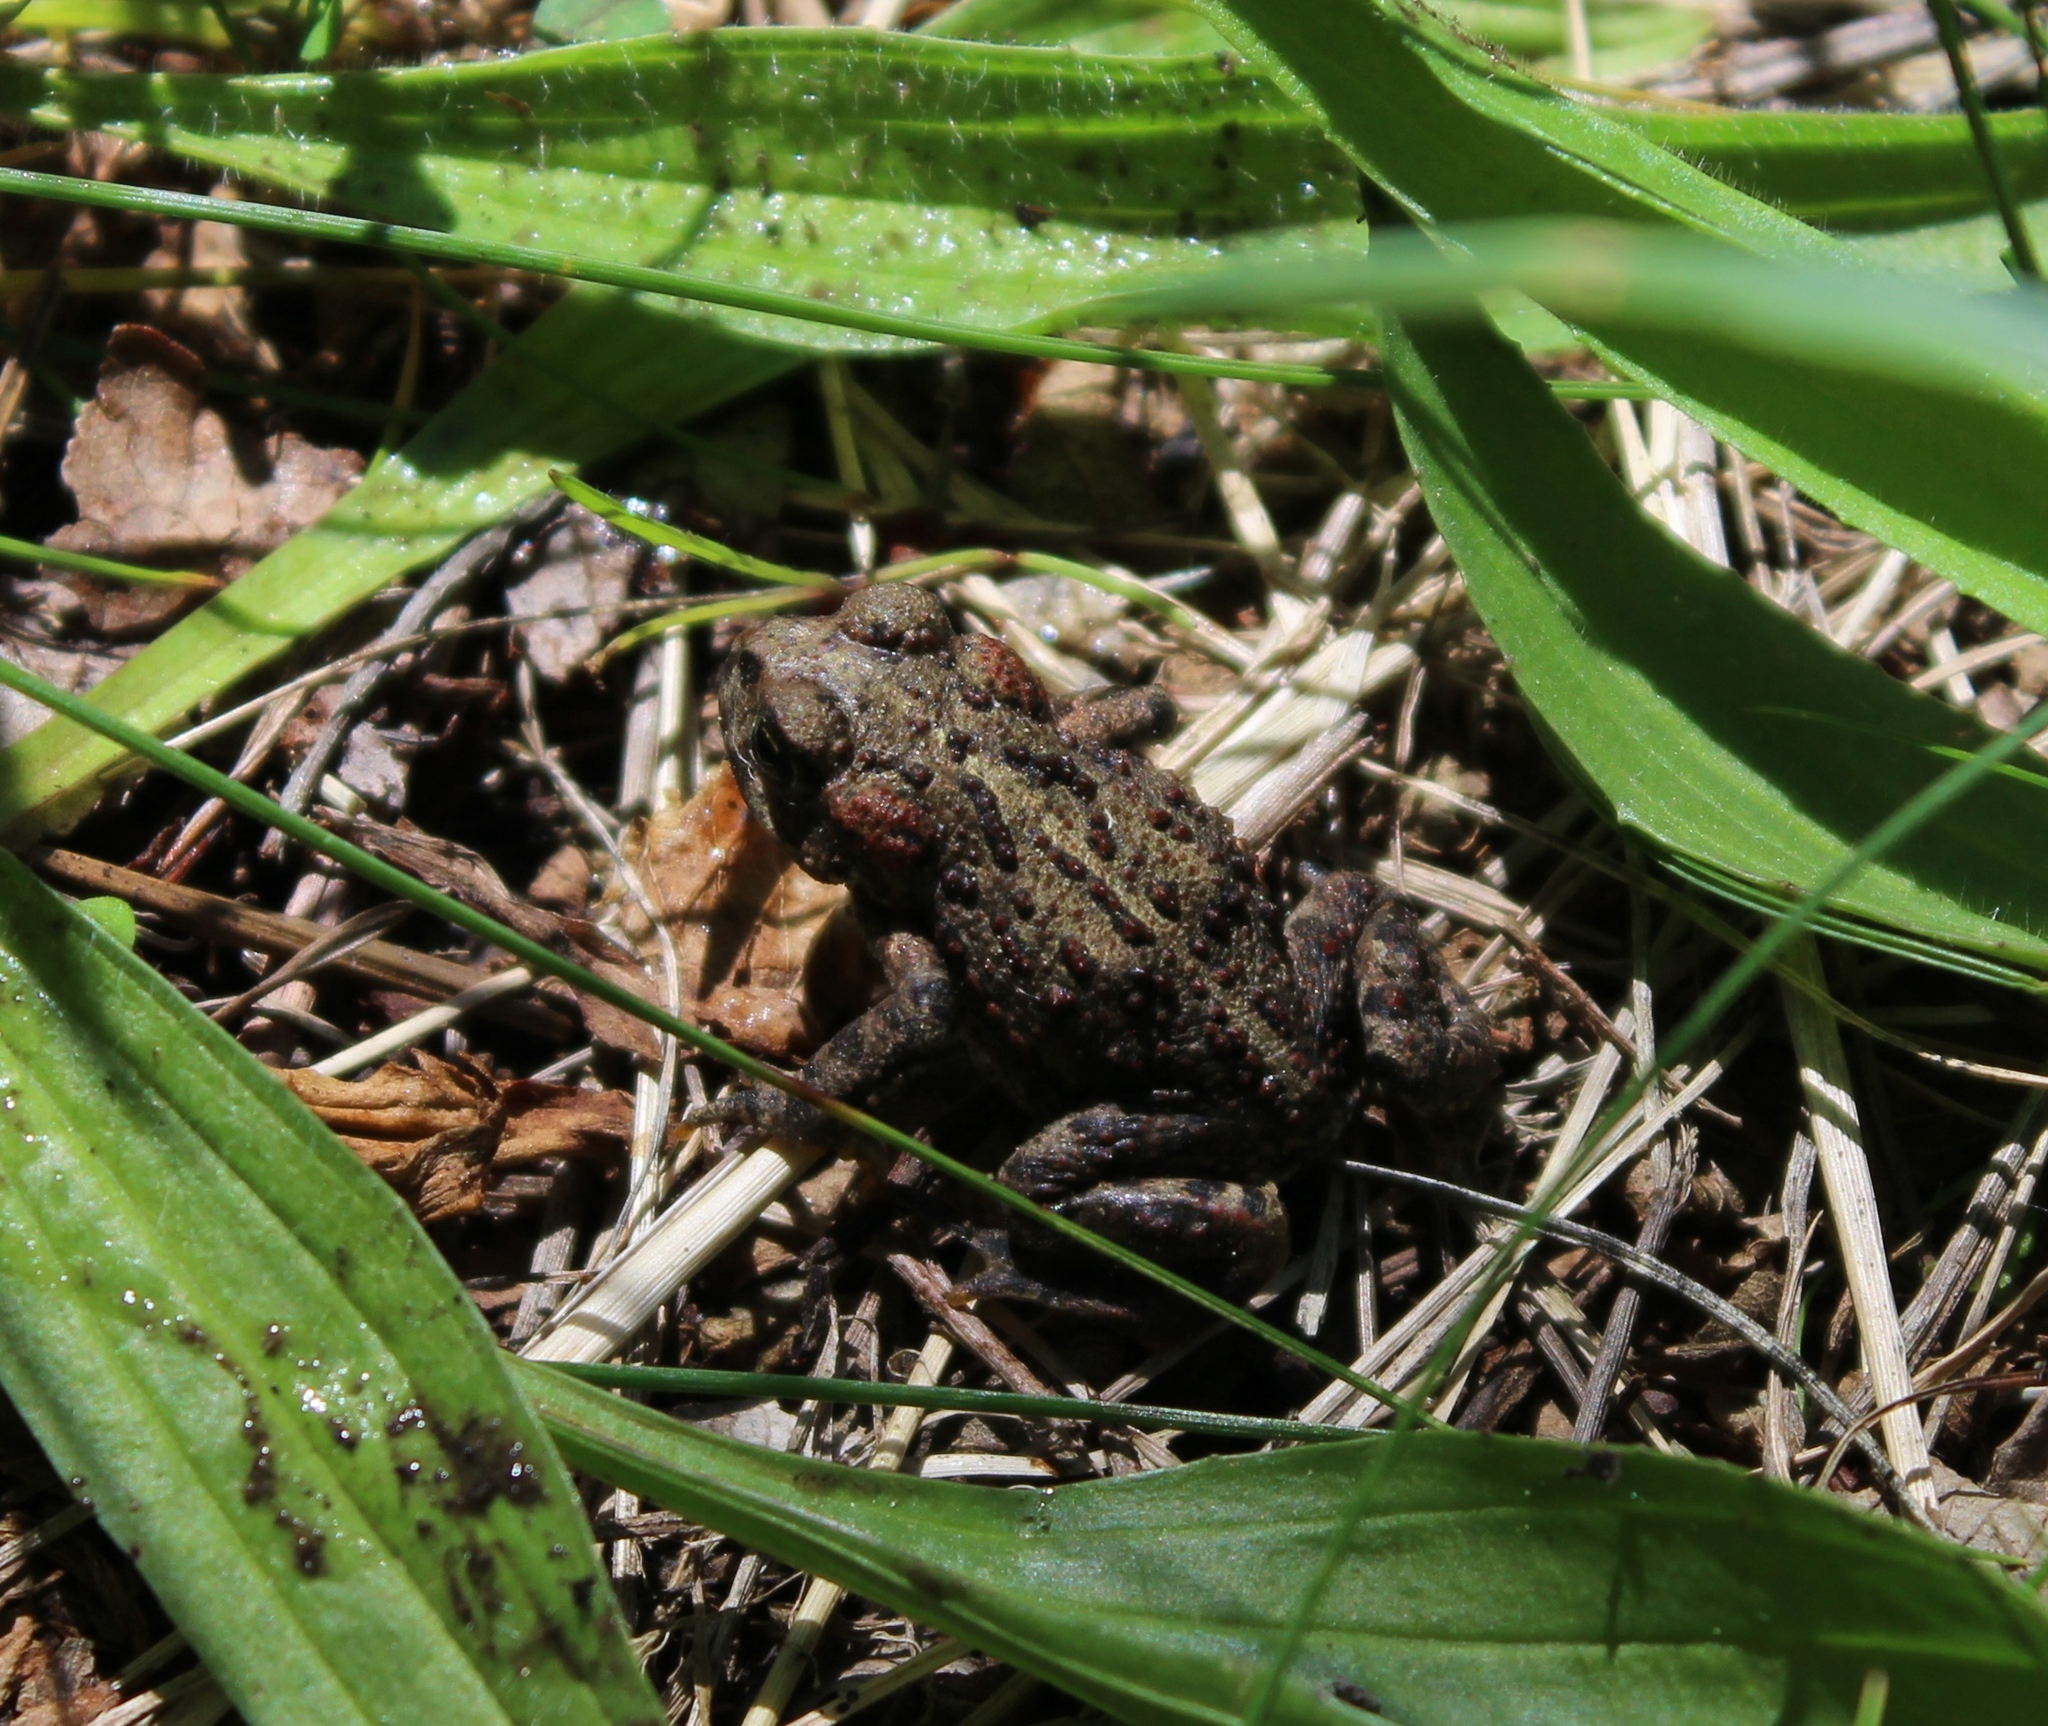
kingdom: Animalia
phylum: Chordata
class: Amphibia
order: Anura
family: Bufonidae
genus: Anaxyrus
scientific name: Anaxyrus boreas
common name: Western toad
